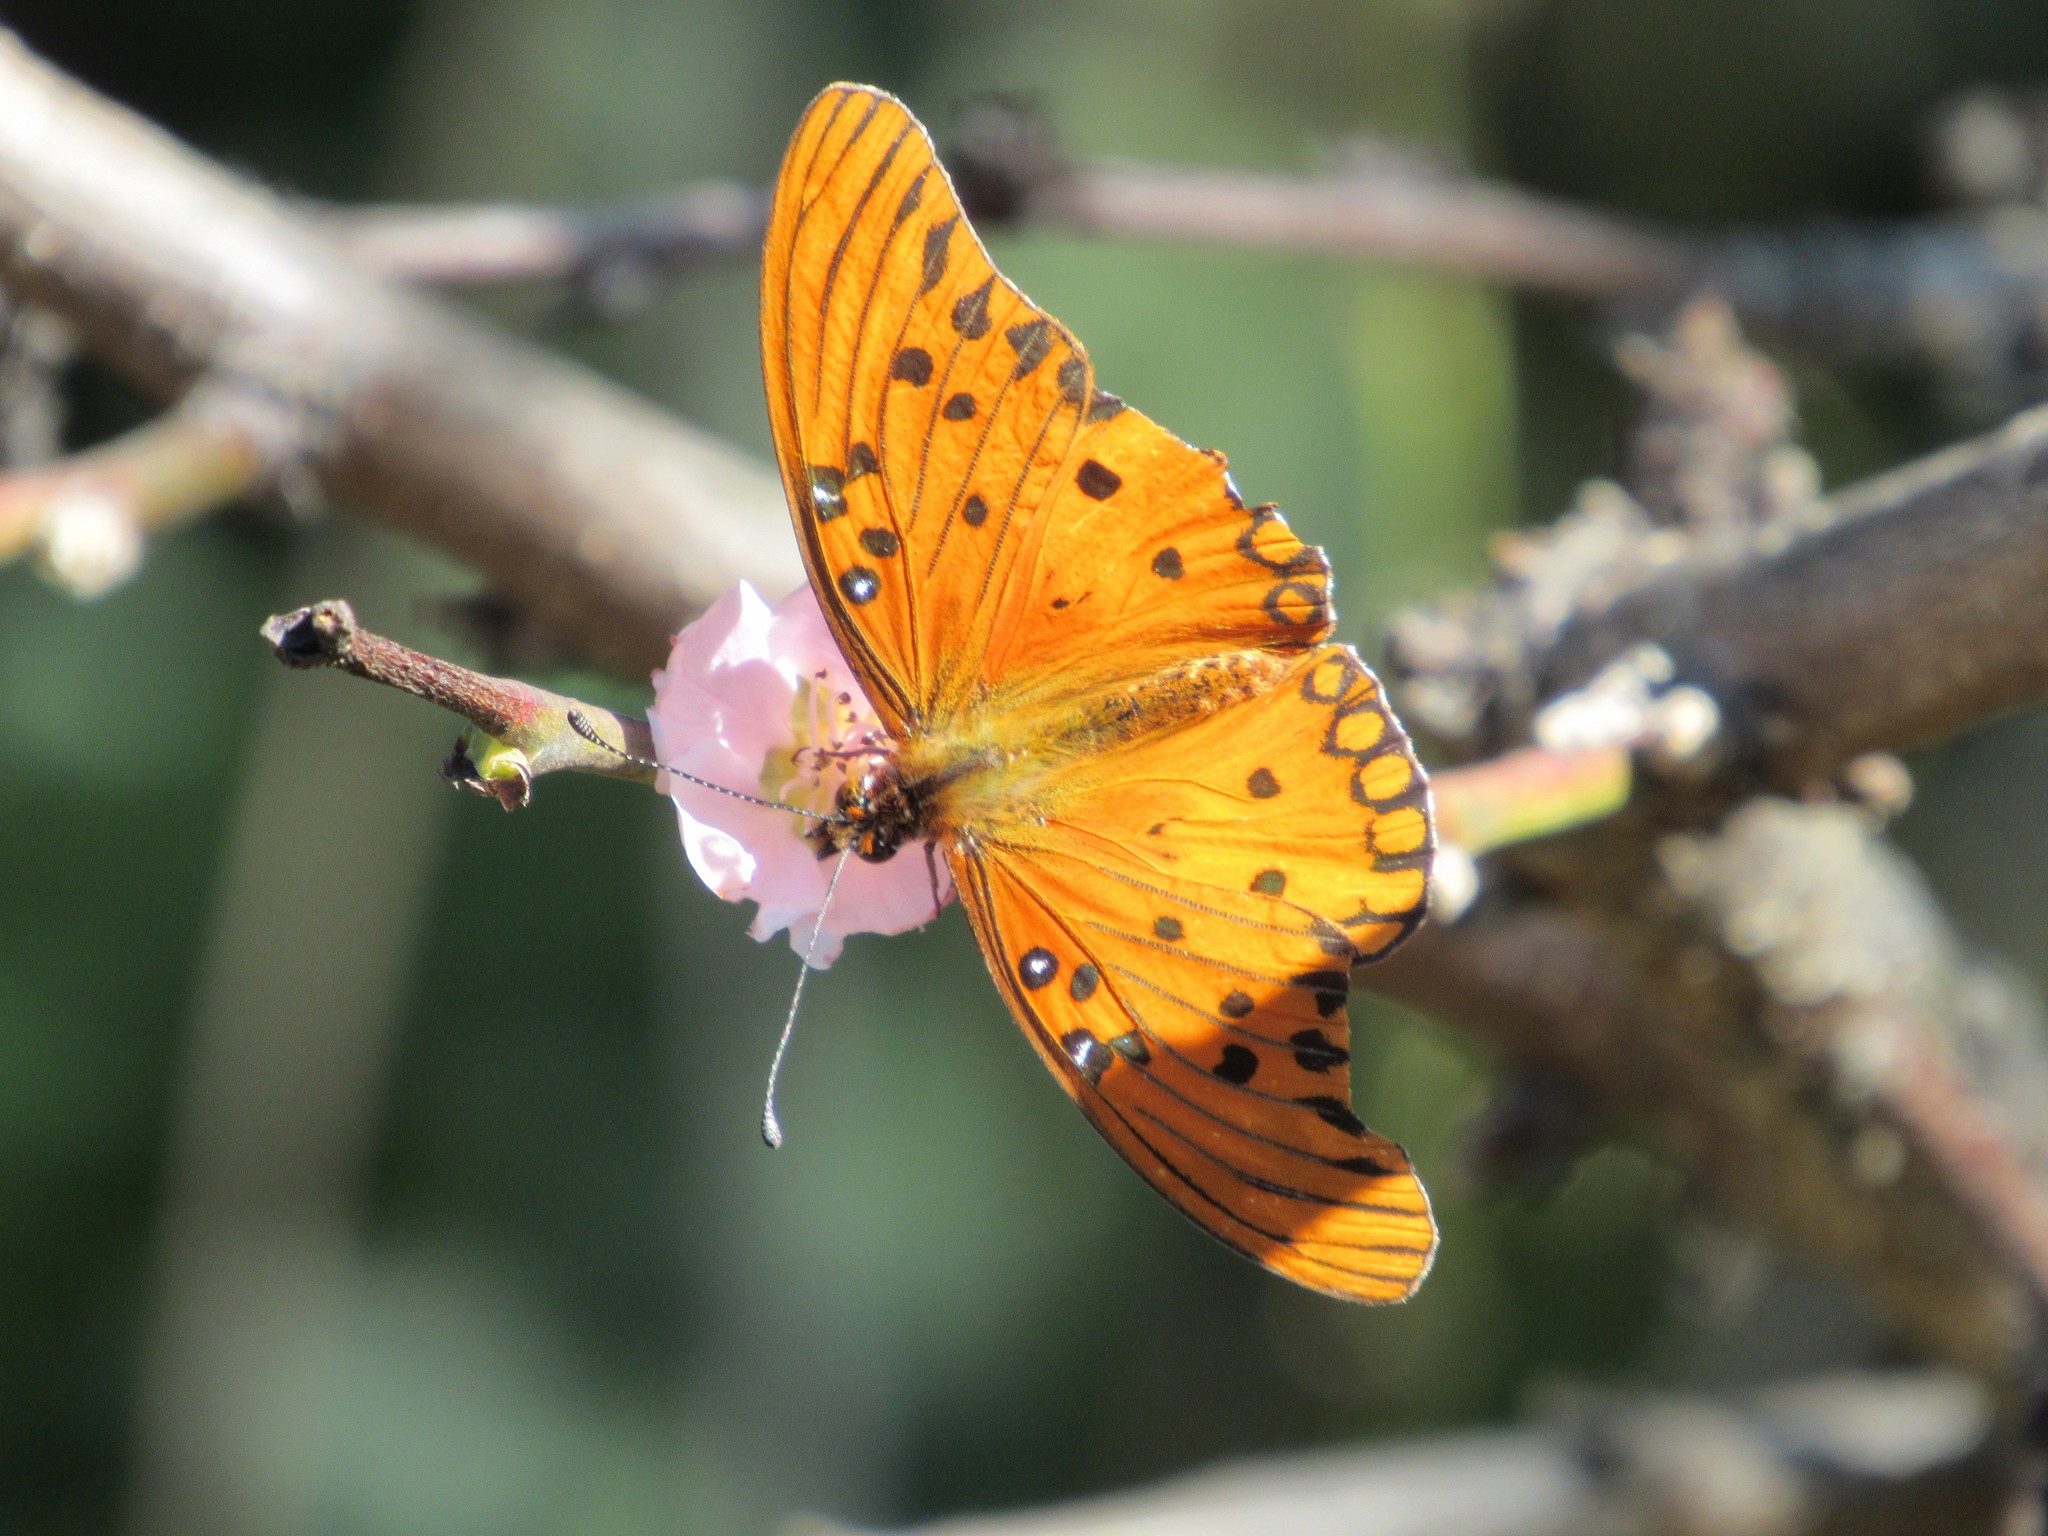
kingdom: Animalia
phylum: Arthropoda
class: Insecta
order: Lepidoptera
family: Nymphalidae
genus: Dione
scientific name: Dione vanillae
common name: Gulf fritillary
